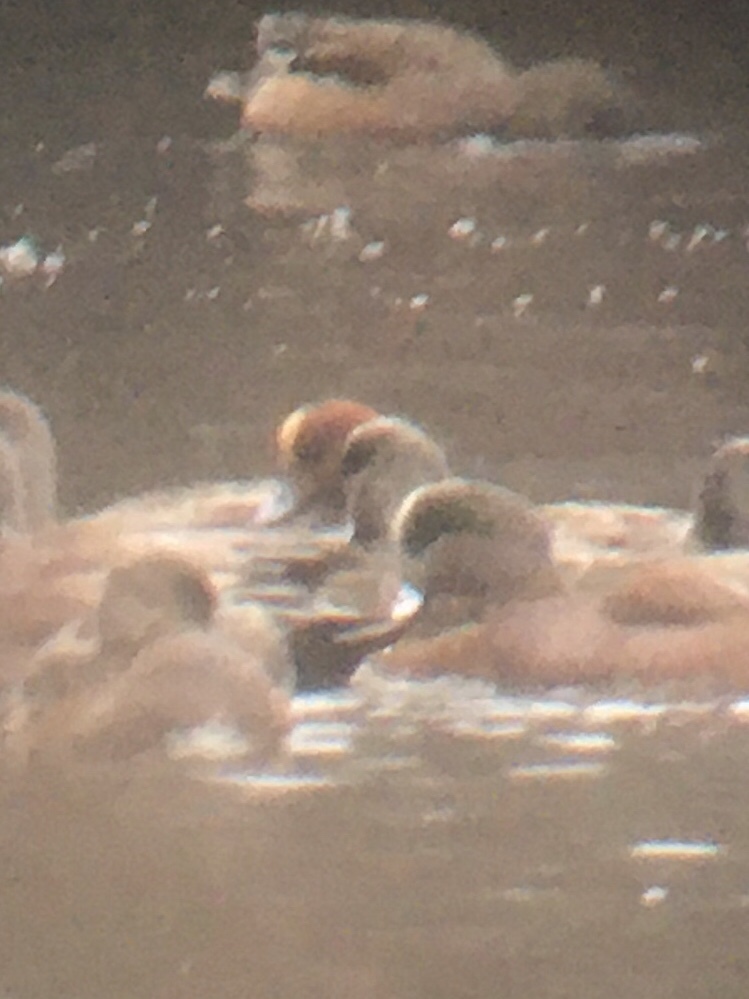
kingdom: Animalia
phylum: Chordata
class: Aves
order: Anseriformes
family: Anatidae
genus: Mareca
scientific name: Mareca penelope
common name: Eurasian wigeon
